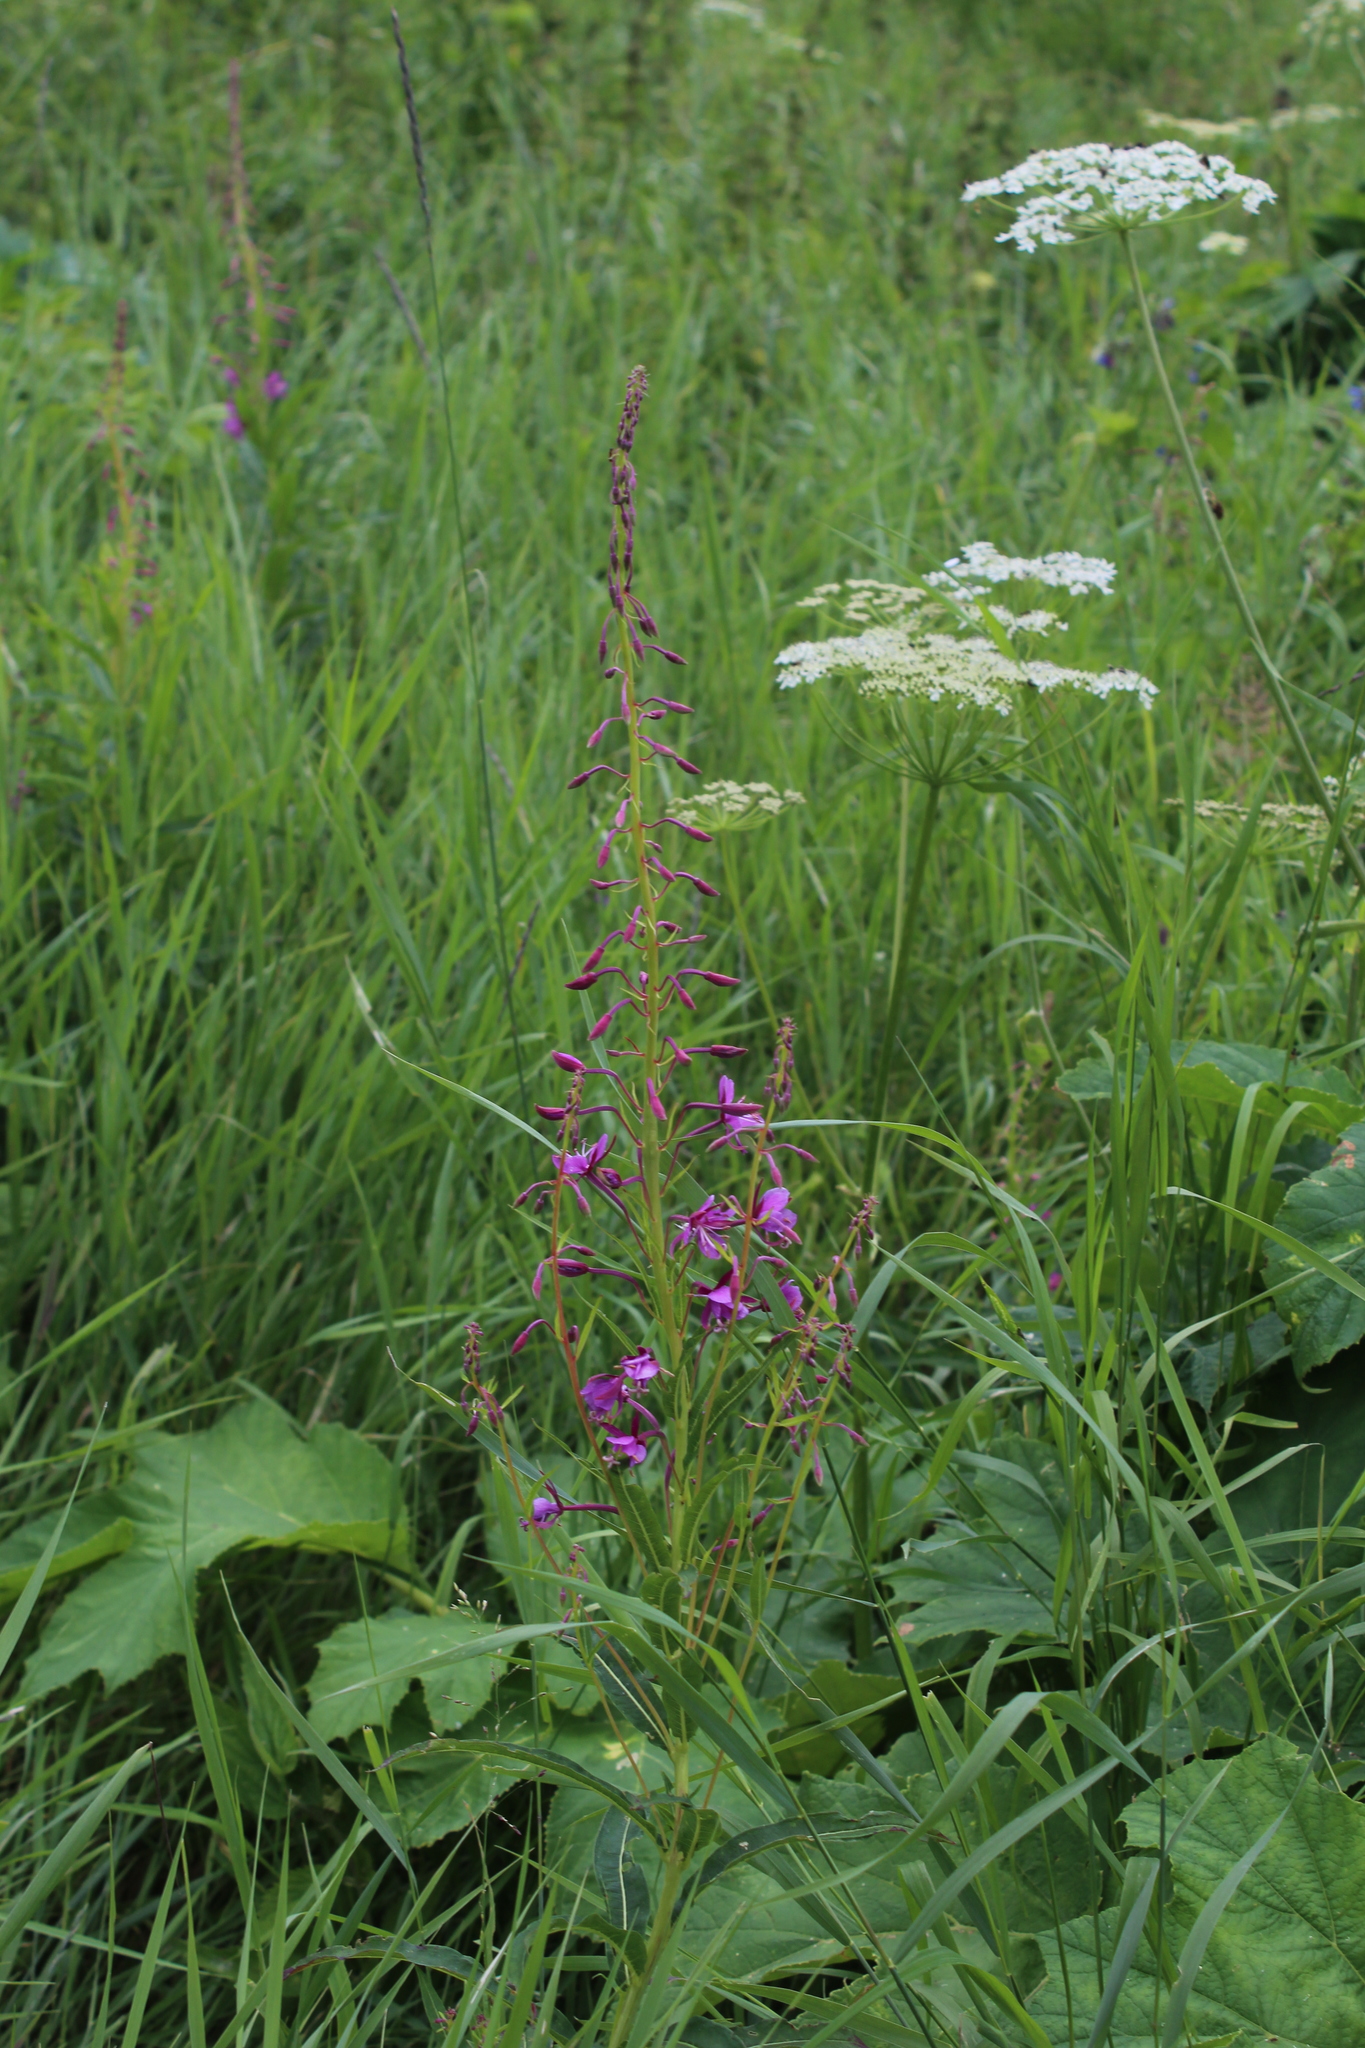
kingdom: Plantae
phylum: Tracheophyta
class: Magnoliopsida
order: Myrtales
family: Onagraceae
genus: Chamaenerion
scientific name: Chamaenerion angustifolium
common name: Fireweed
